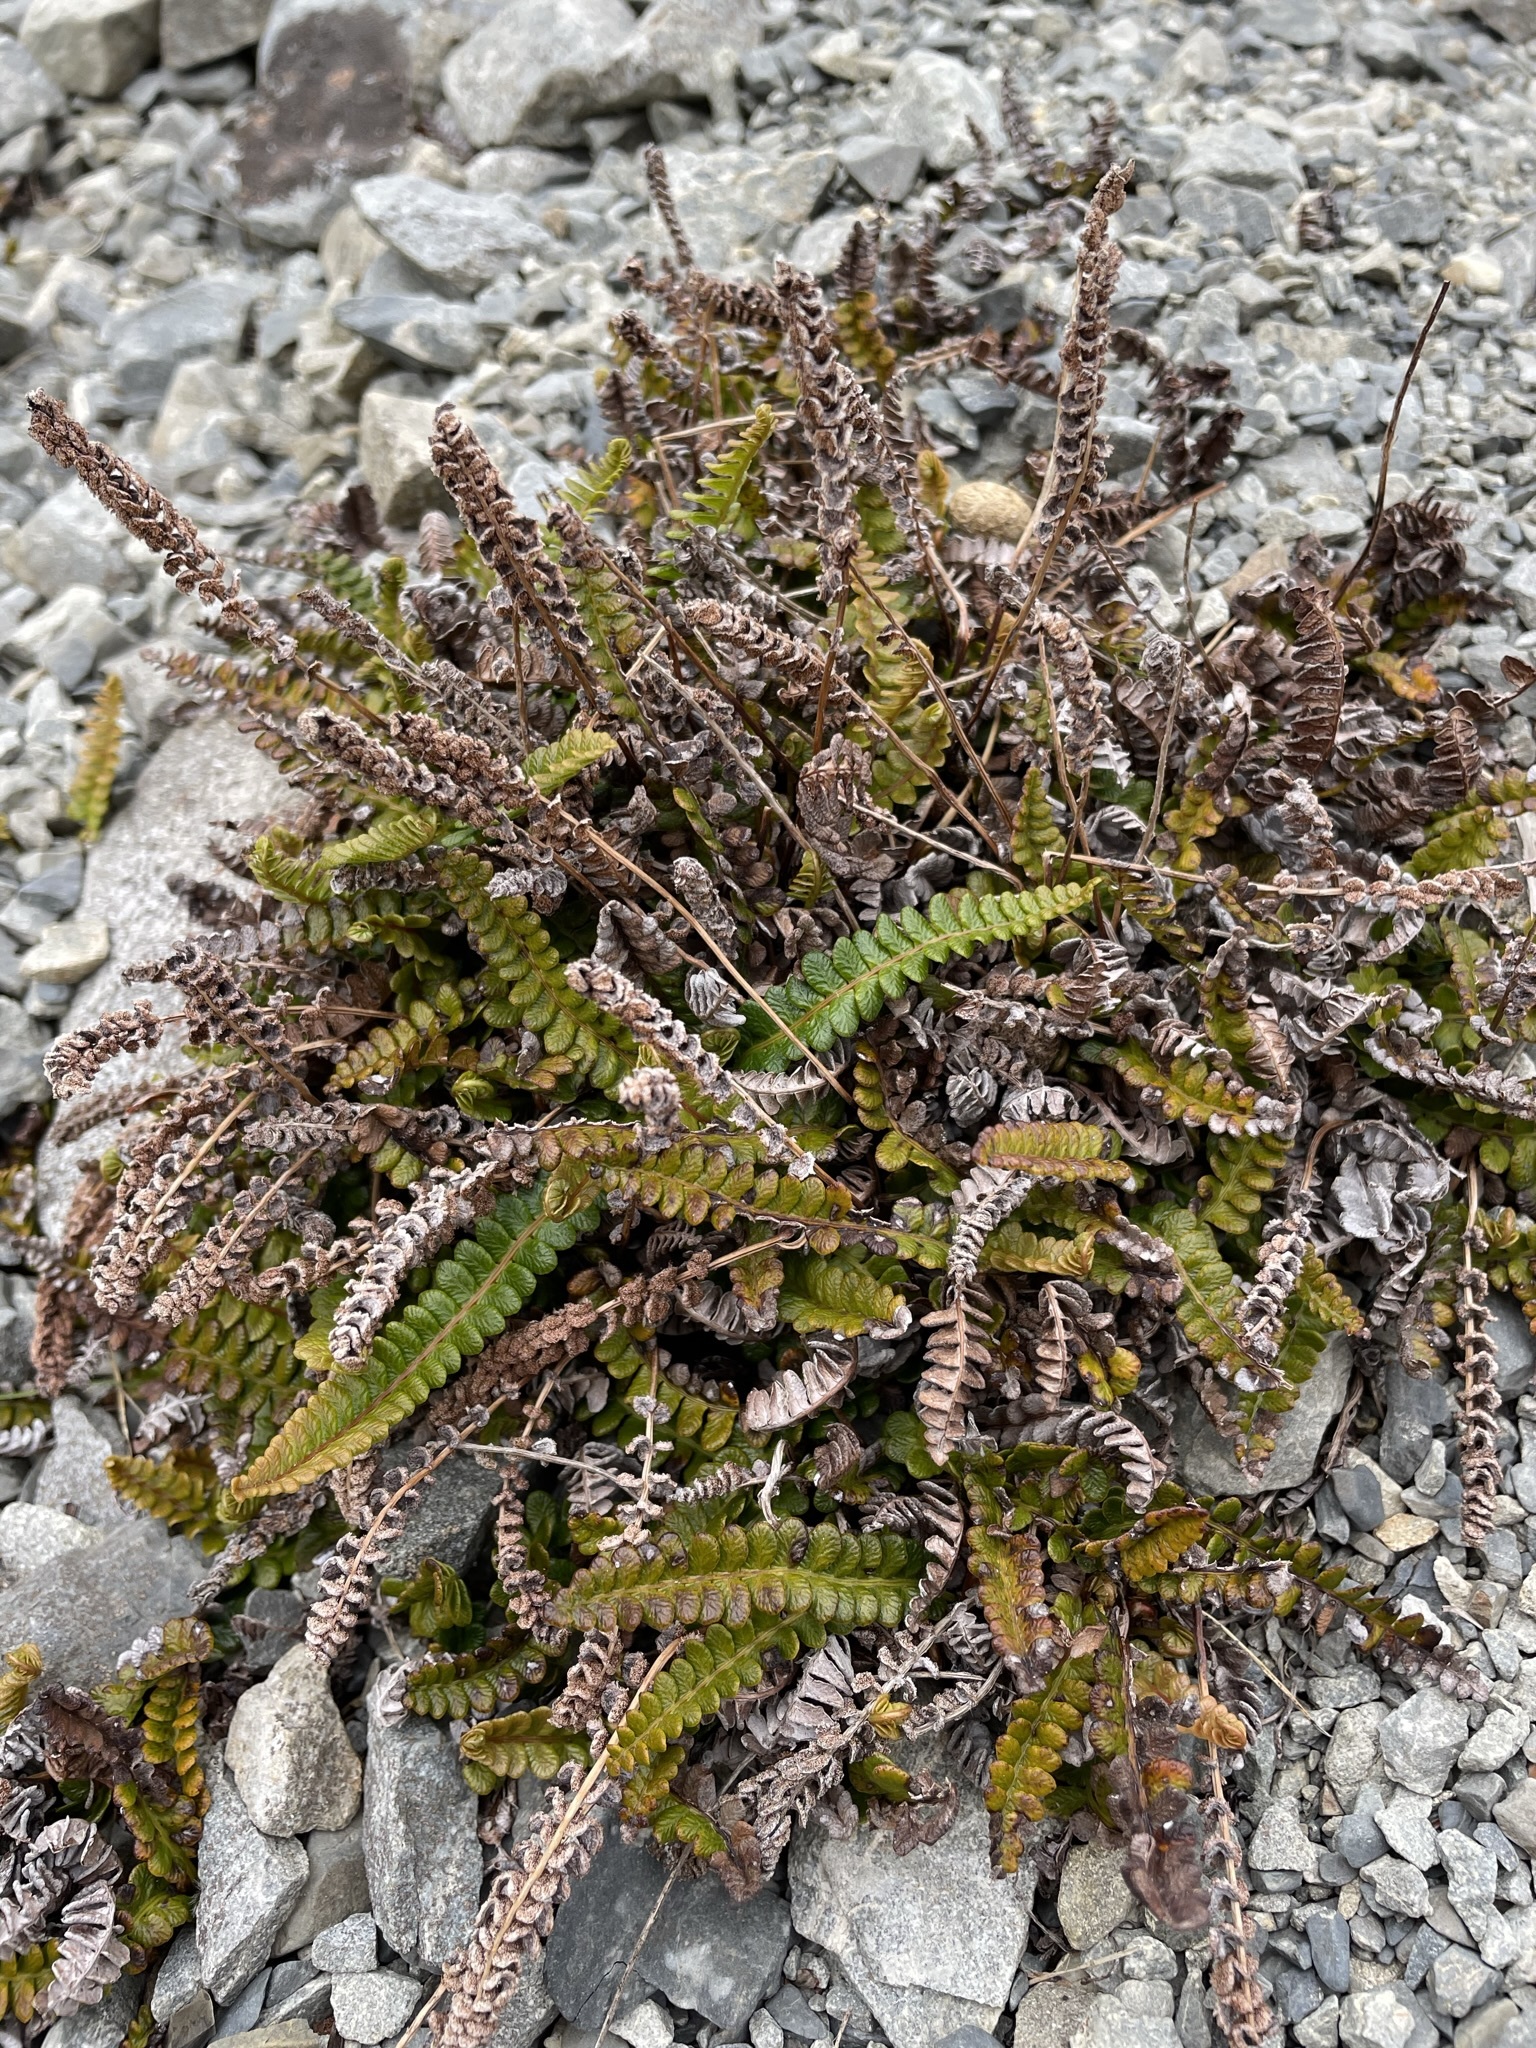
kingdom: Plantae
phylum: Tracheophyta
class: Polypodiopsida
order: Polypodiales
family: Blechnaceae
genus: Austroblechnum
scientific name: Austroblechnum penna-marina
